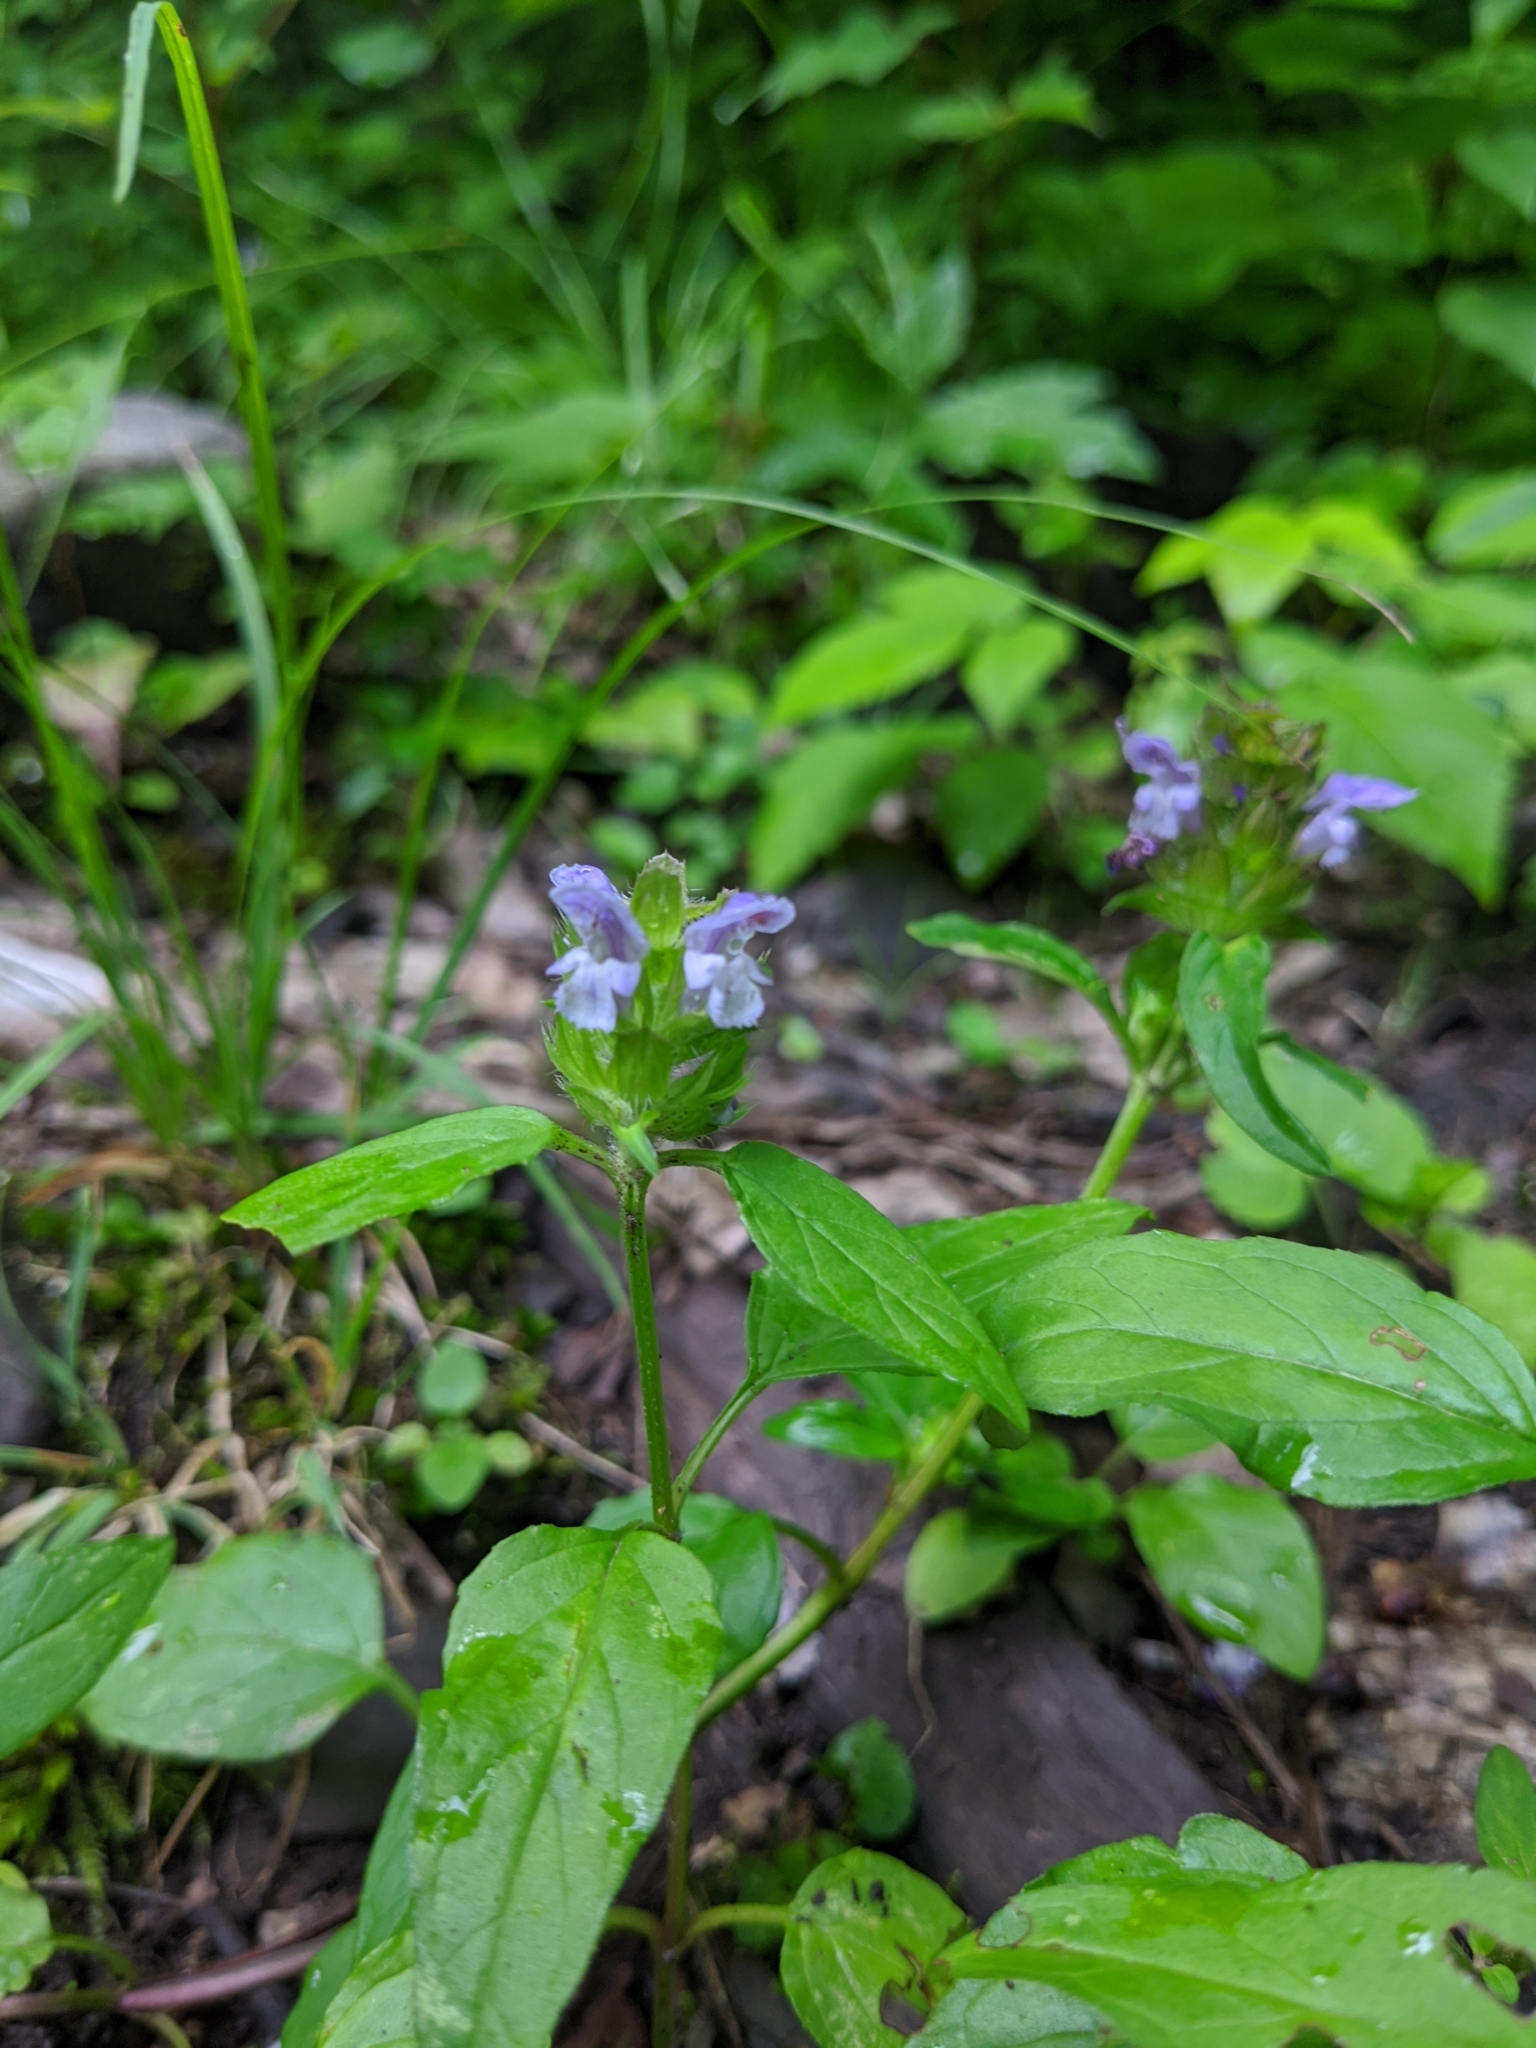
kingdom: Plantae
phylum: Tracheophyta
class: Magnoliopsida
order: Lamiales
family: Lamiaceae
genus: Prunella
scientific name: Prunella vulgaris
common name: Heal-all
